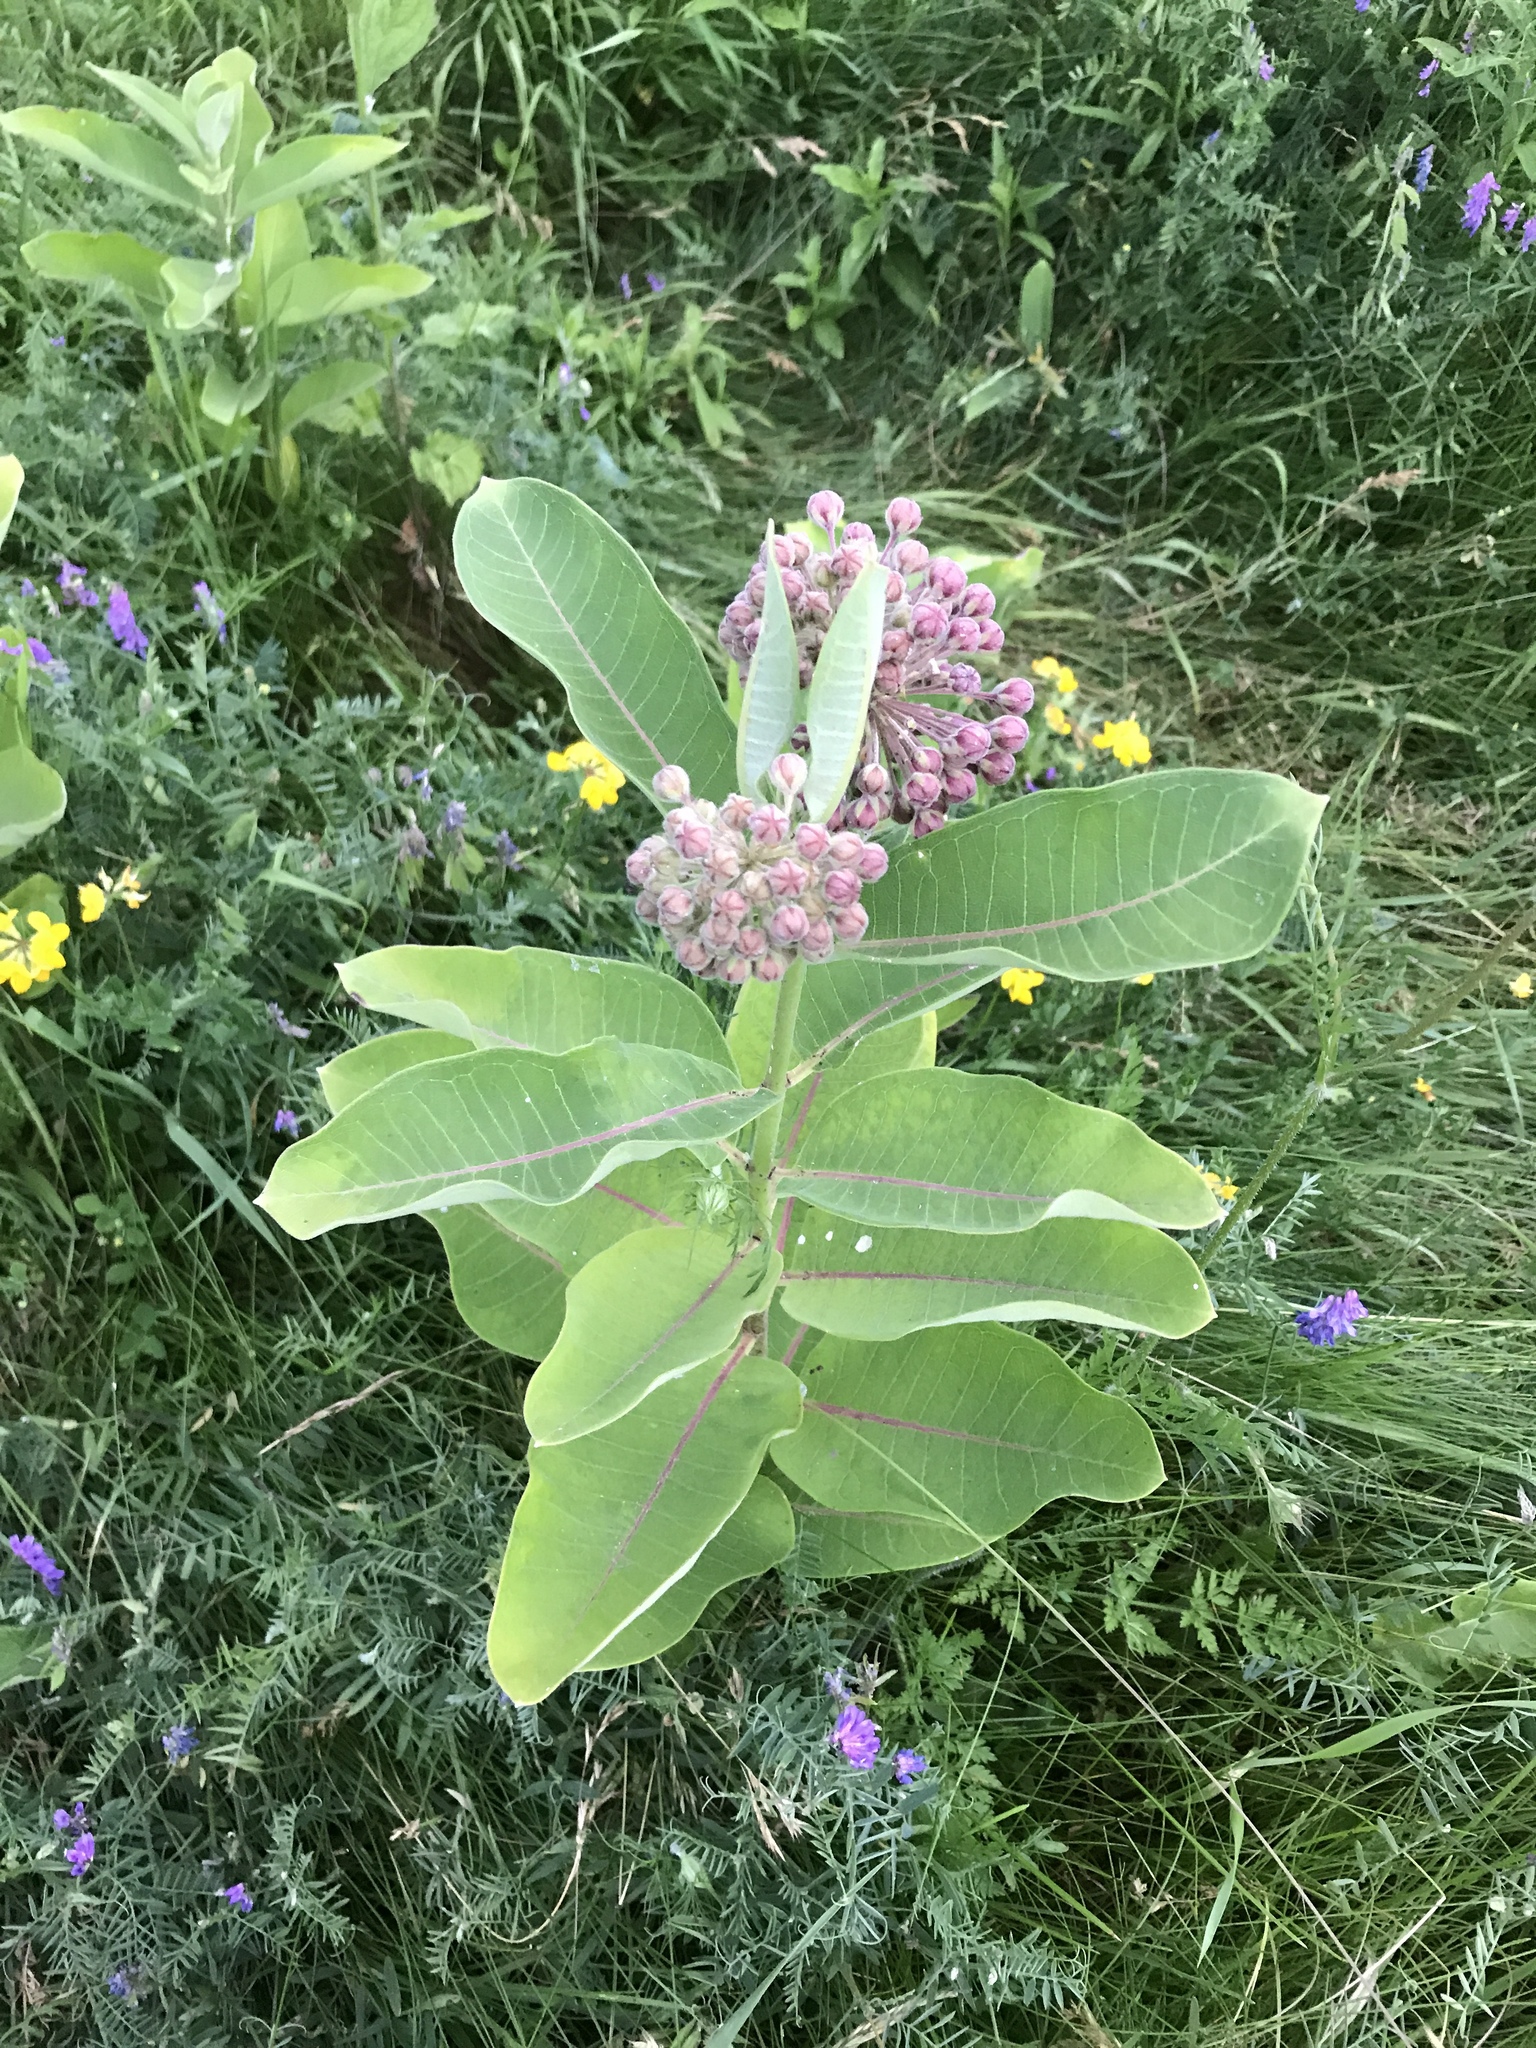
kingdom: Plantae
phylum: Tracheophyta
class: Magnoliopsida
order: Gentianales
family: Apocynaceae
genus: Asclepias
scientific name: Asclepias syriaca
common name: Common milkweed
